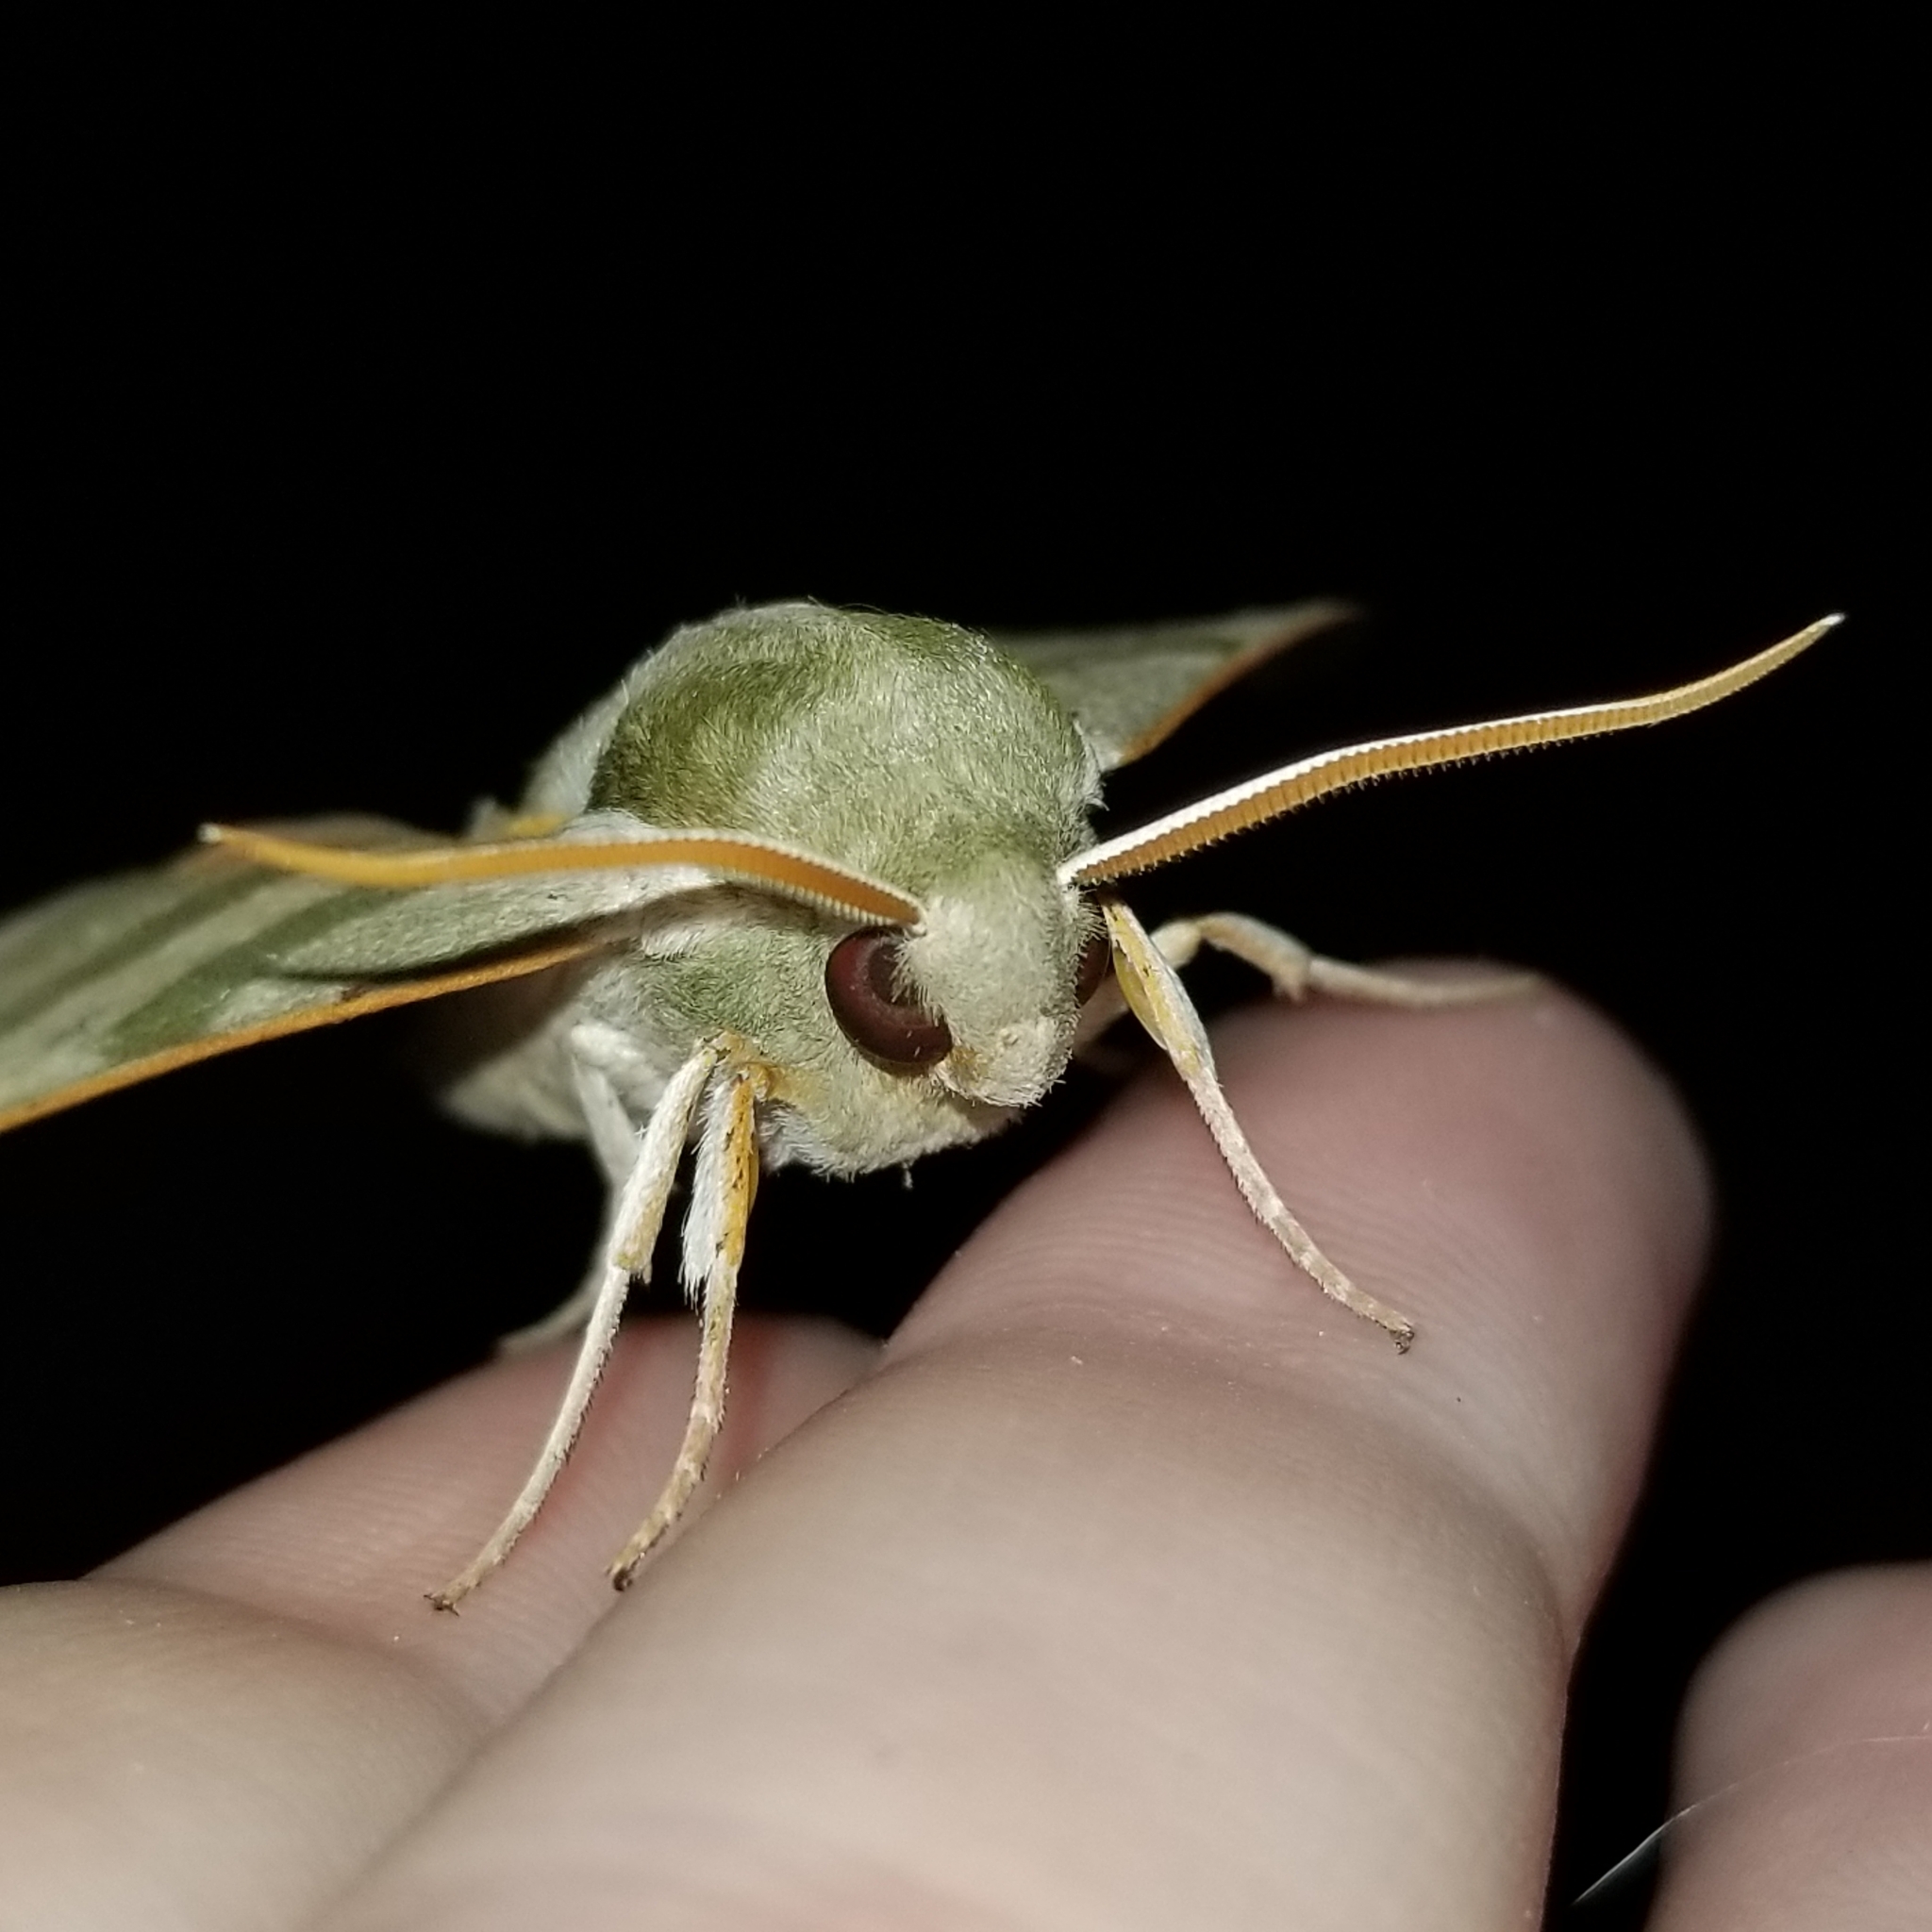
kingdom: Animalia
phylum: Arthropoda
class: Insecta
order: Lepidoptera
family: Sphingidae
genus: Darapsa
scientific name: Darapsa myron
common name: Hog sphinx
